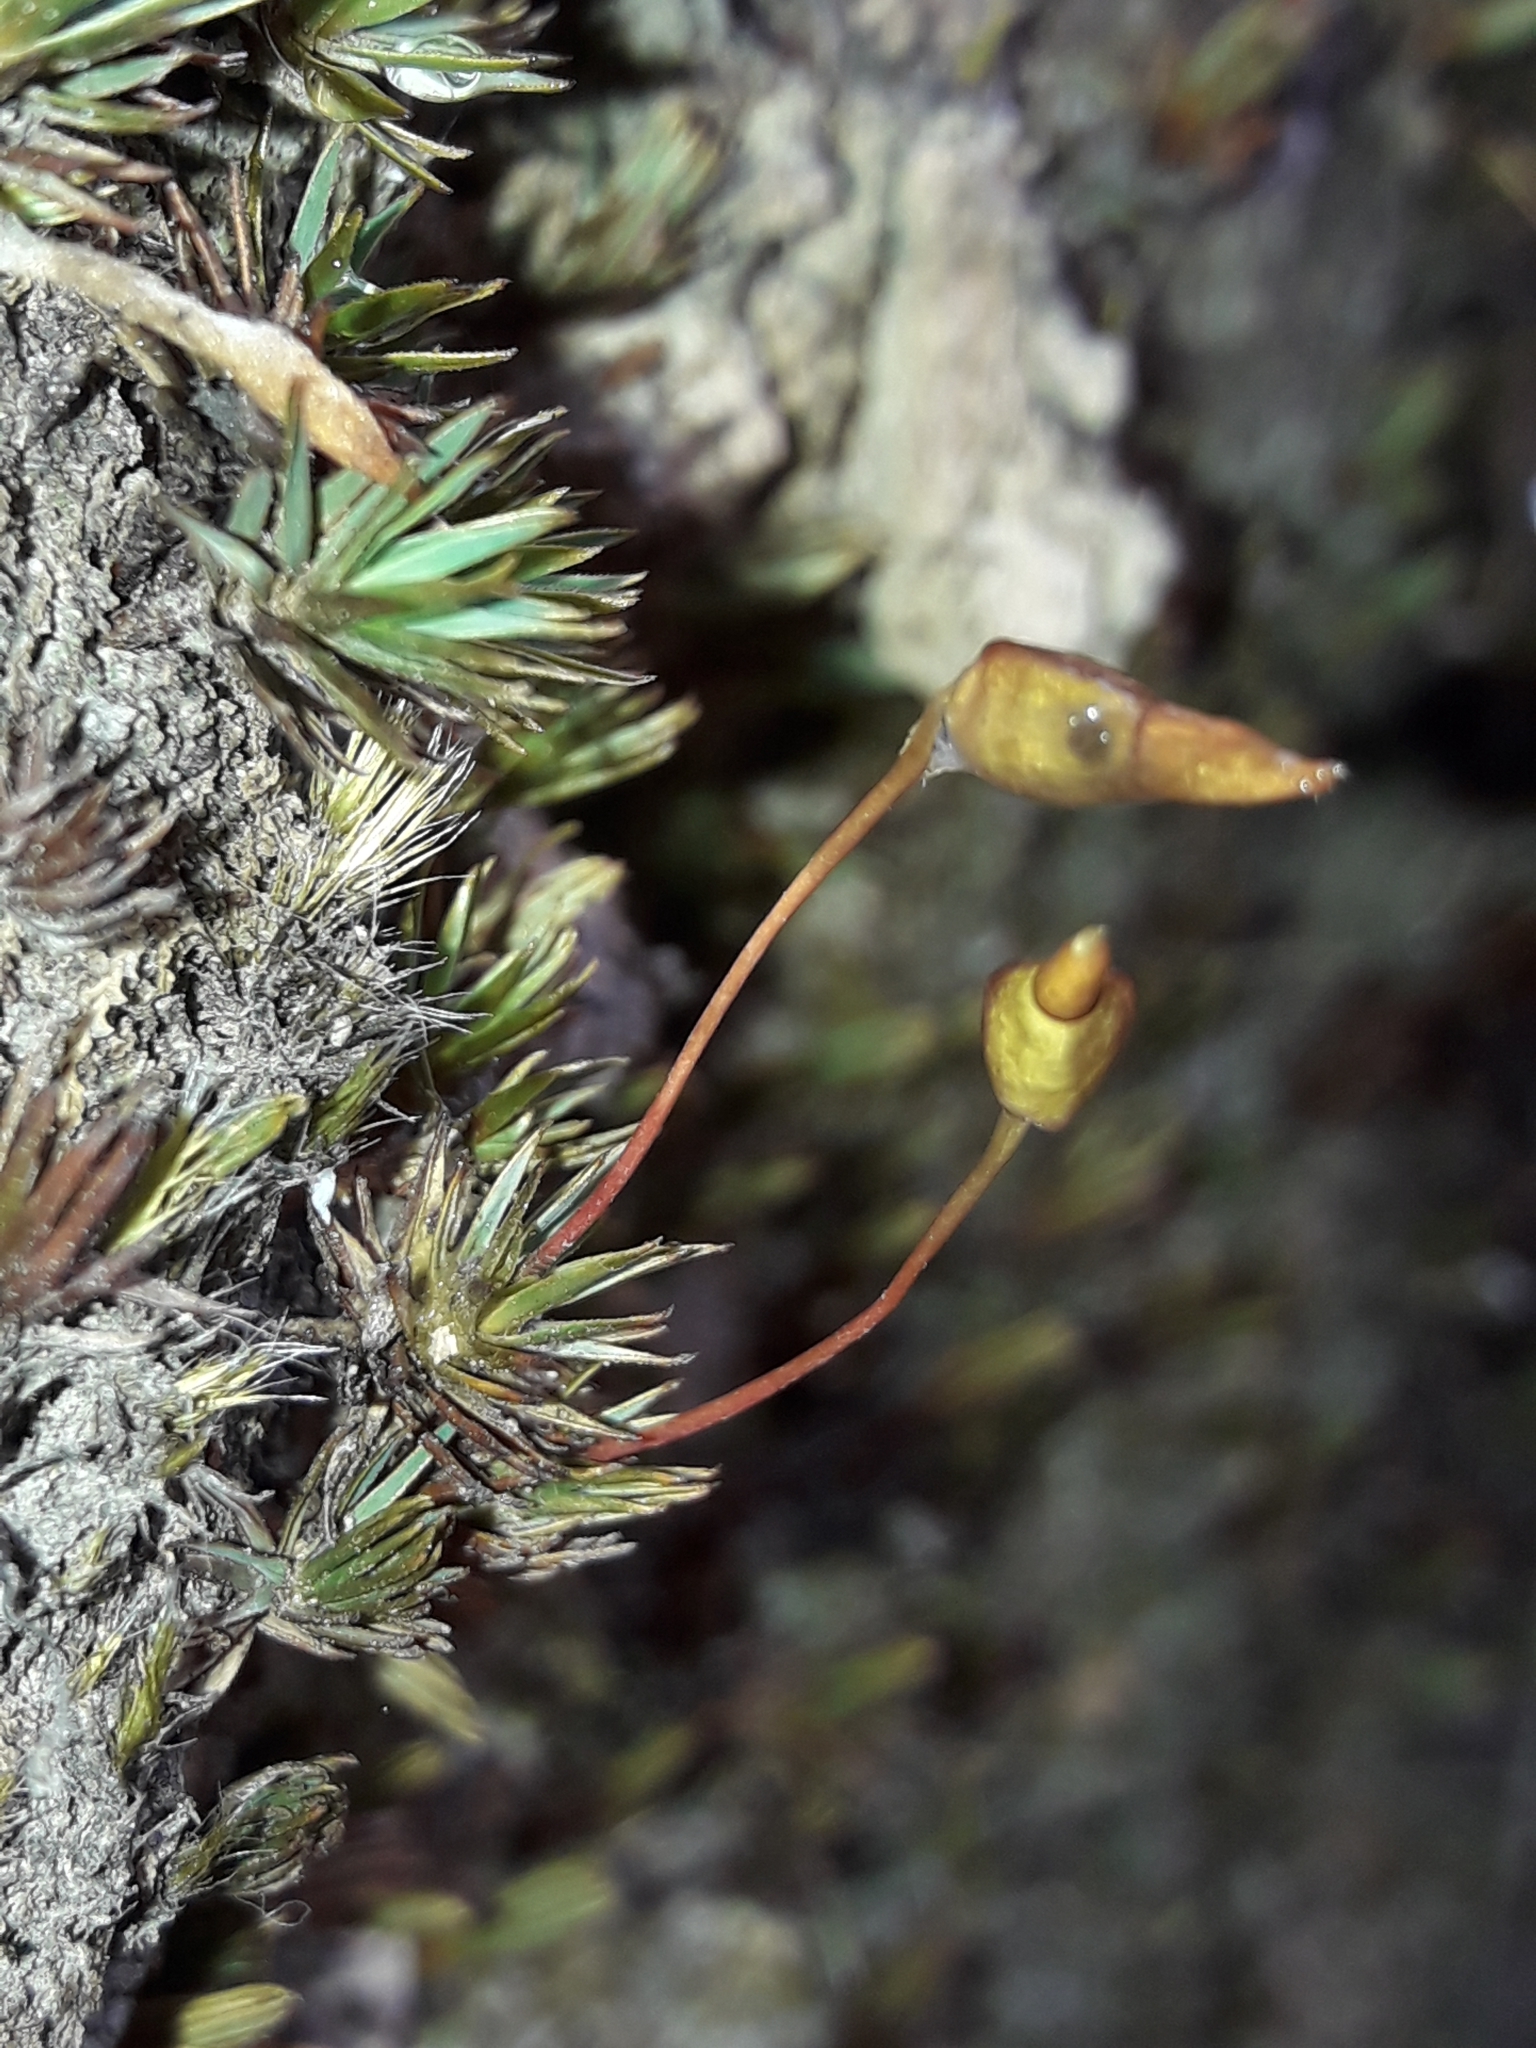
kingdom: Plantae
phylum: Bryophyta
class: Polytrichopsida
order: Polytrichales
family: Polytrichaceae
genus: Dawsonia
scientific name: Dawsonia longiseta
